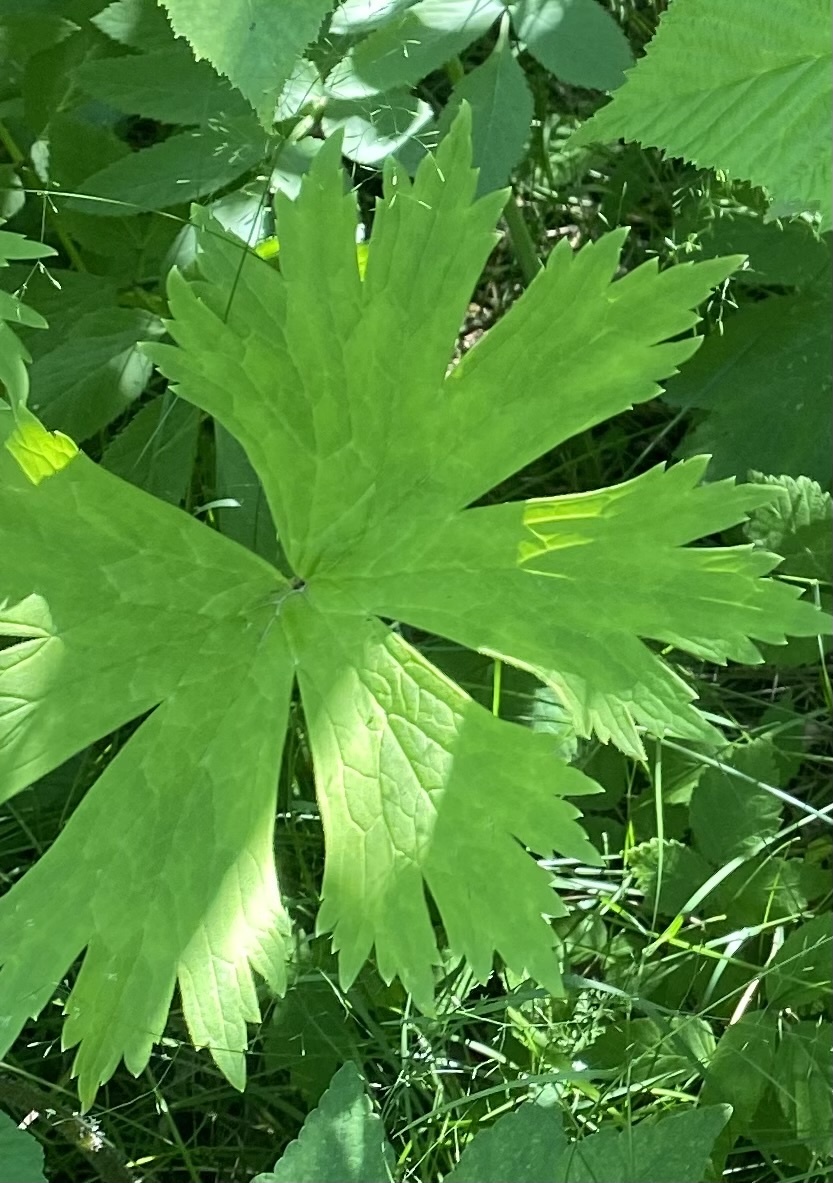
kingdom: Plantae
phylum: Tracheophyta
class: Magnoliopsida
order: Ranunculales
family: Ranunculaceae
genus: Aconitum
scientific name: Aconitum septentrionale
